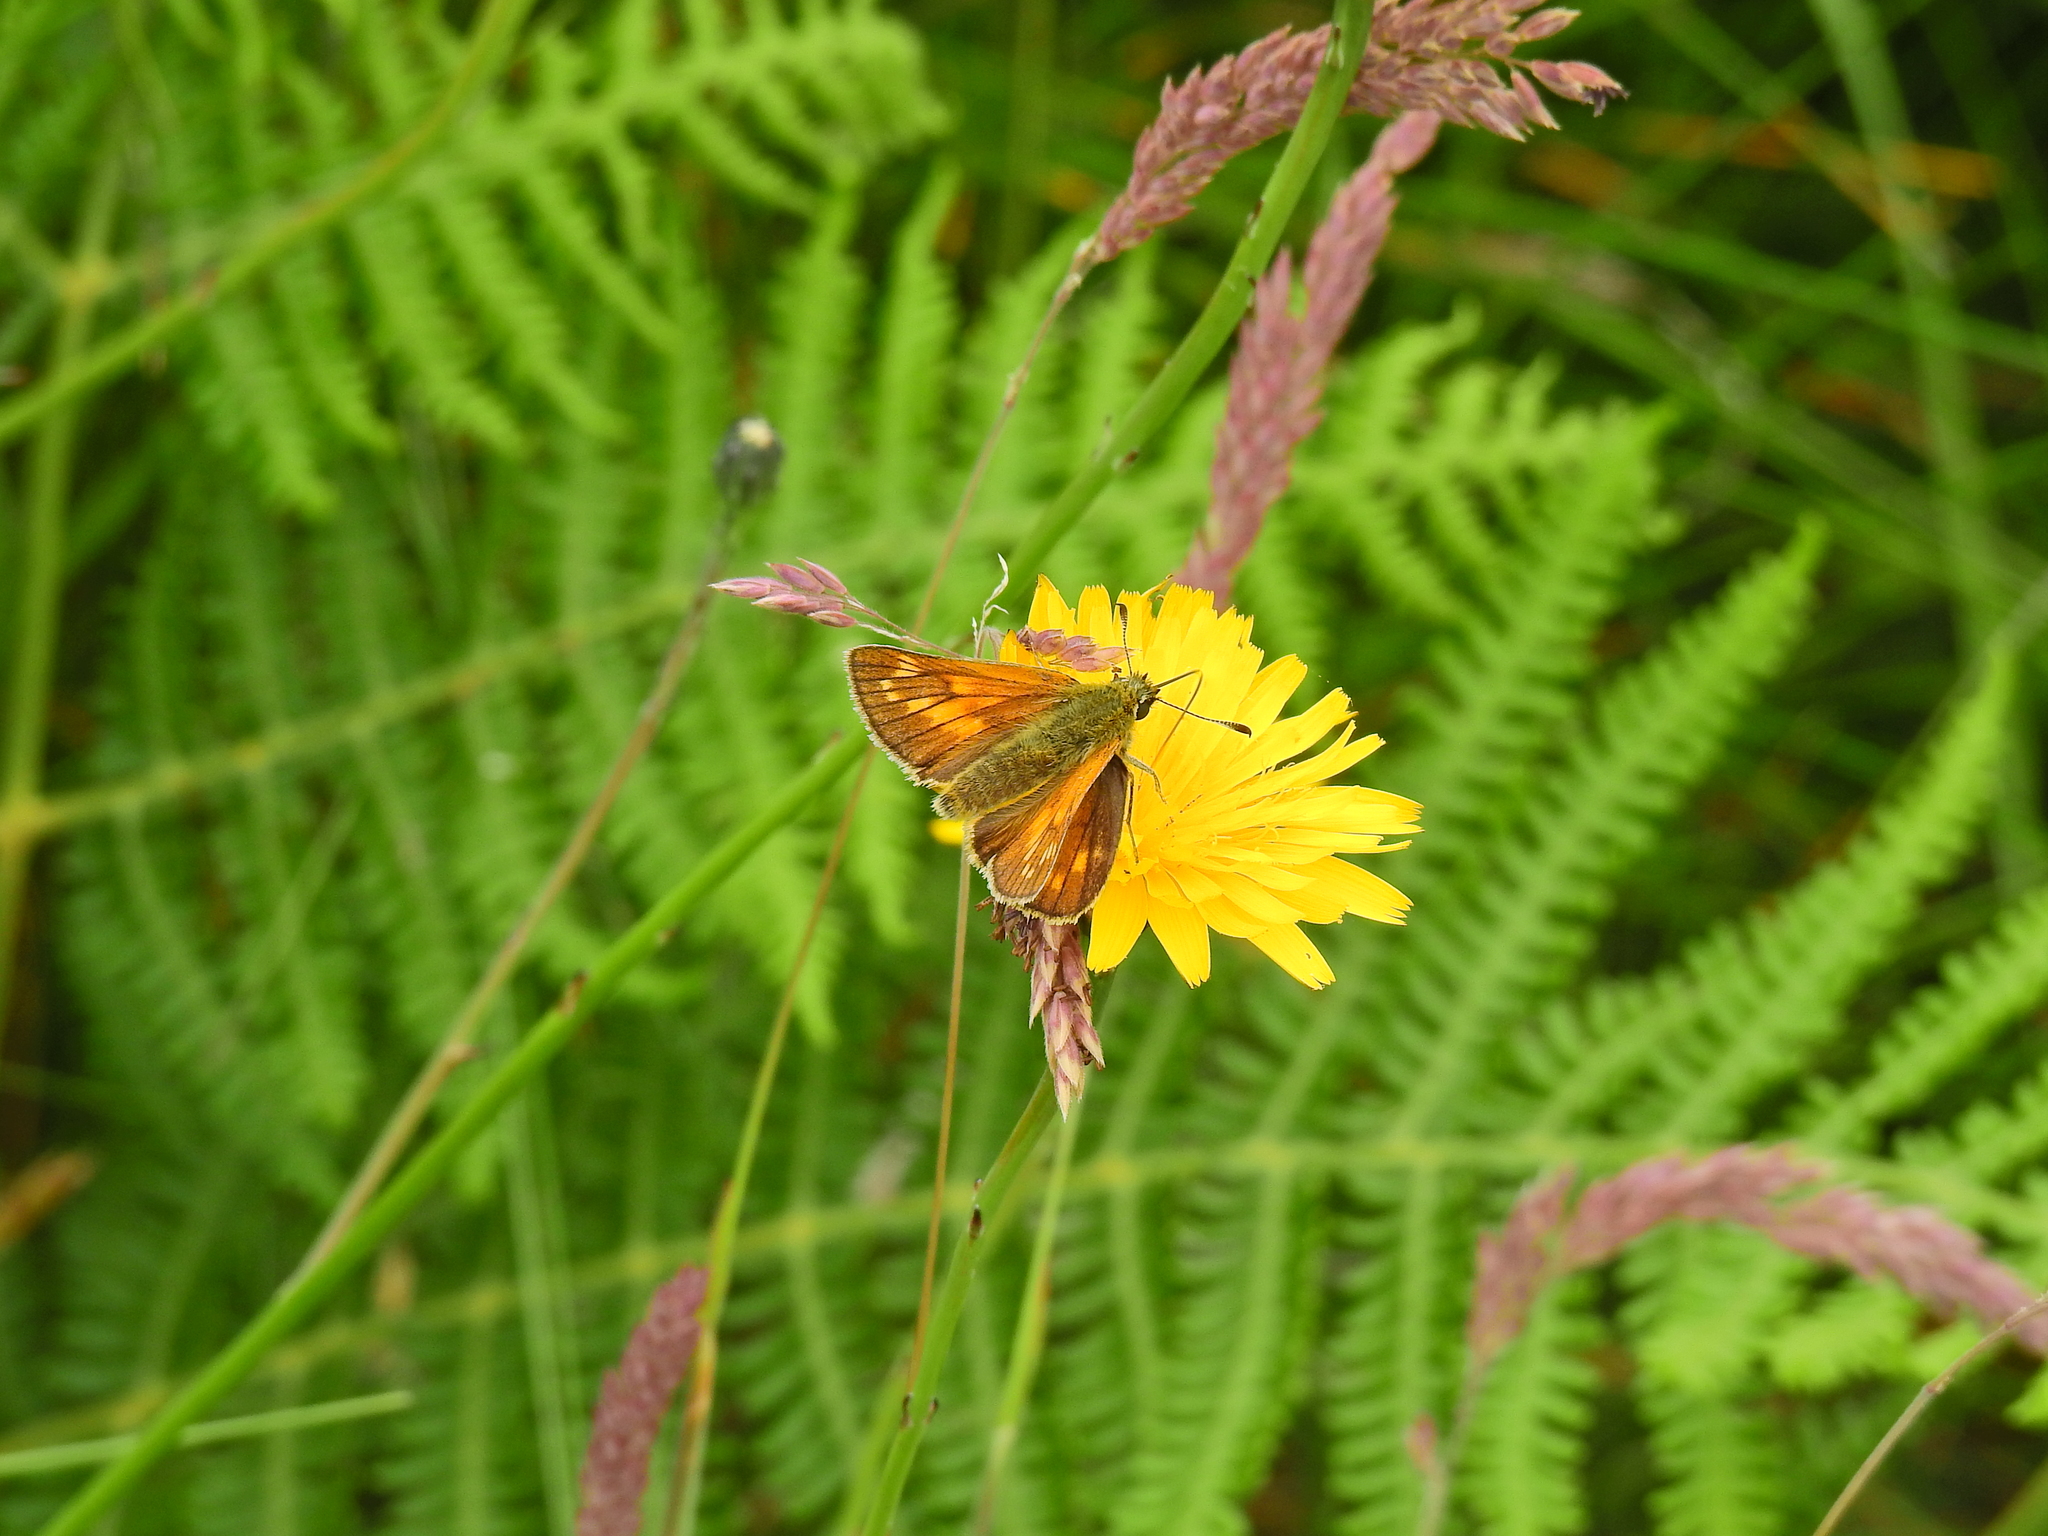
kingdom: Animalia
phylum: Arthropoda
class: Insecta
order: Lepidoptera
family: Hesperiidae
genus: Ochlodes
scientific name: Ochlodes venata
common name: Large skipper
